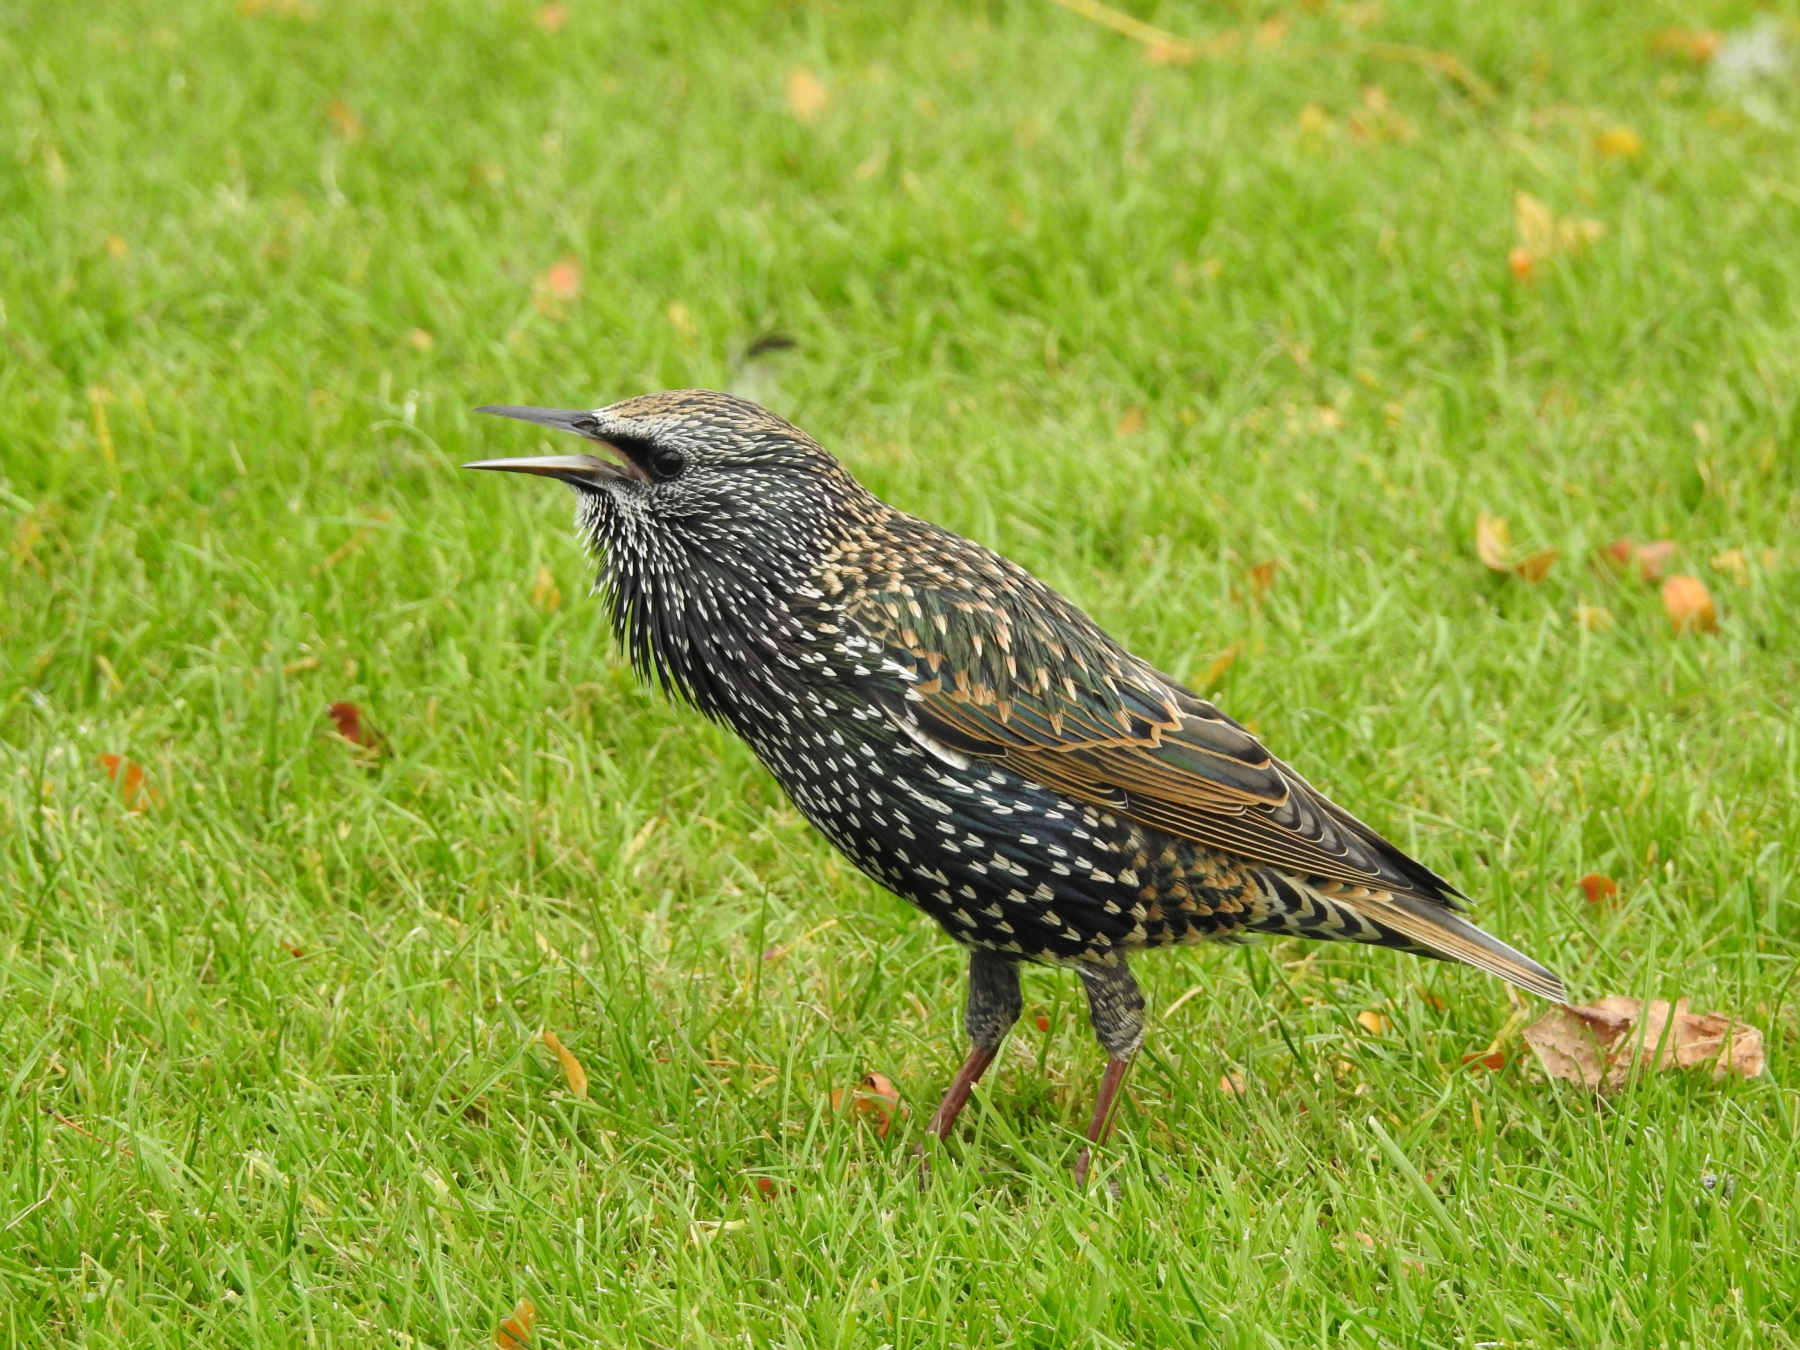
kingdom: Animalia
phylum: Chordata
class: Aves
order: Passeriformes
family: Sturnidae
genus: Sturnus
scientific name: Sturnus vulgaris
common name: Common starling
